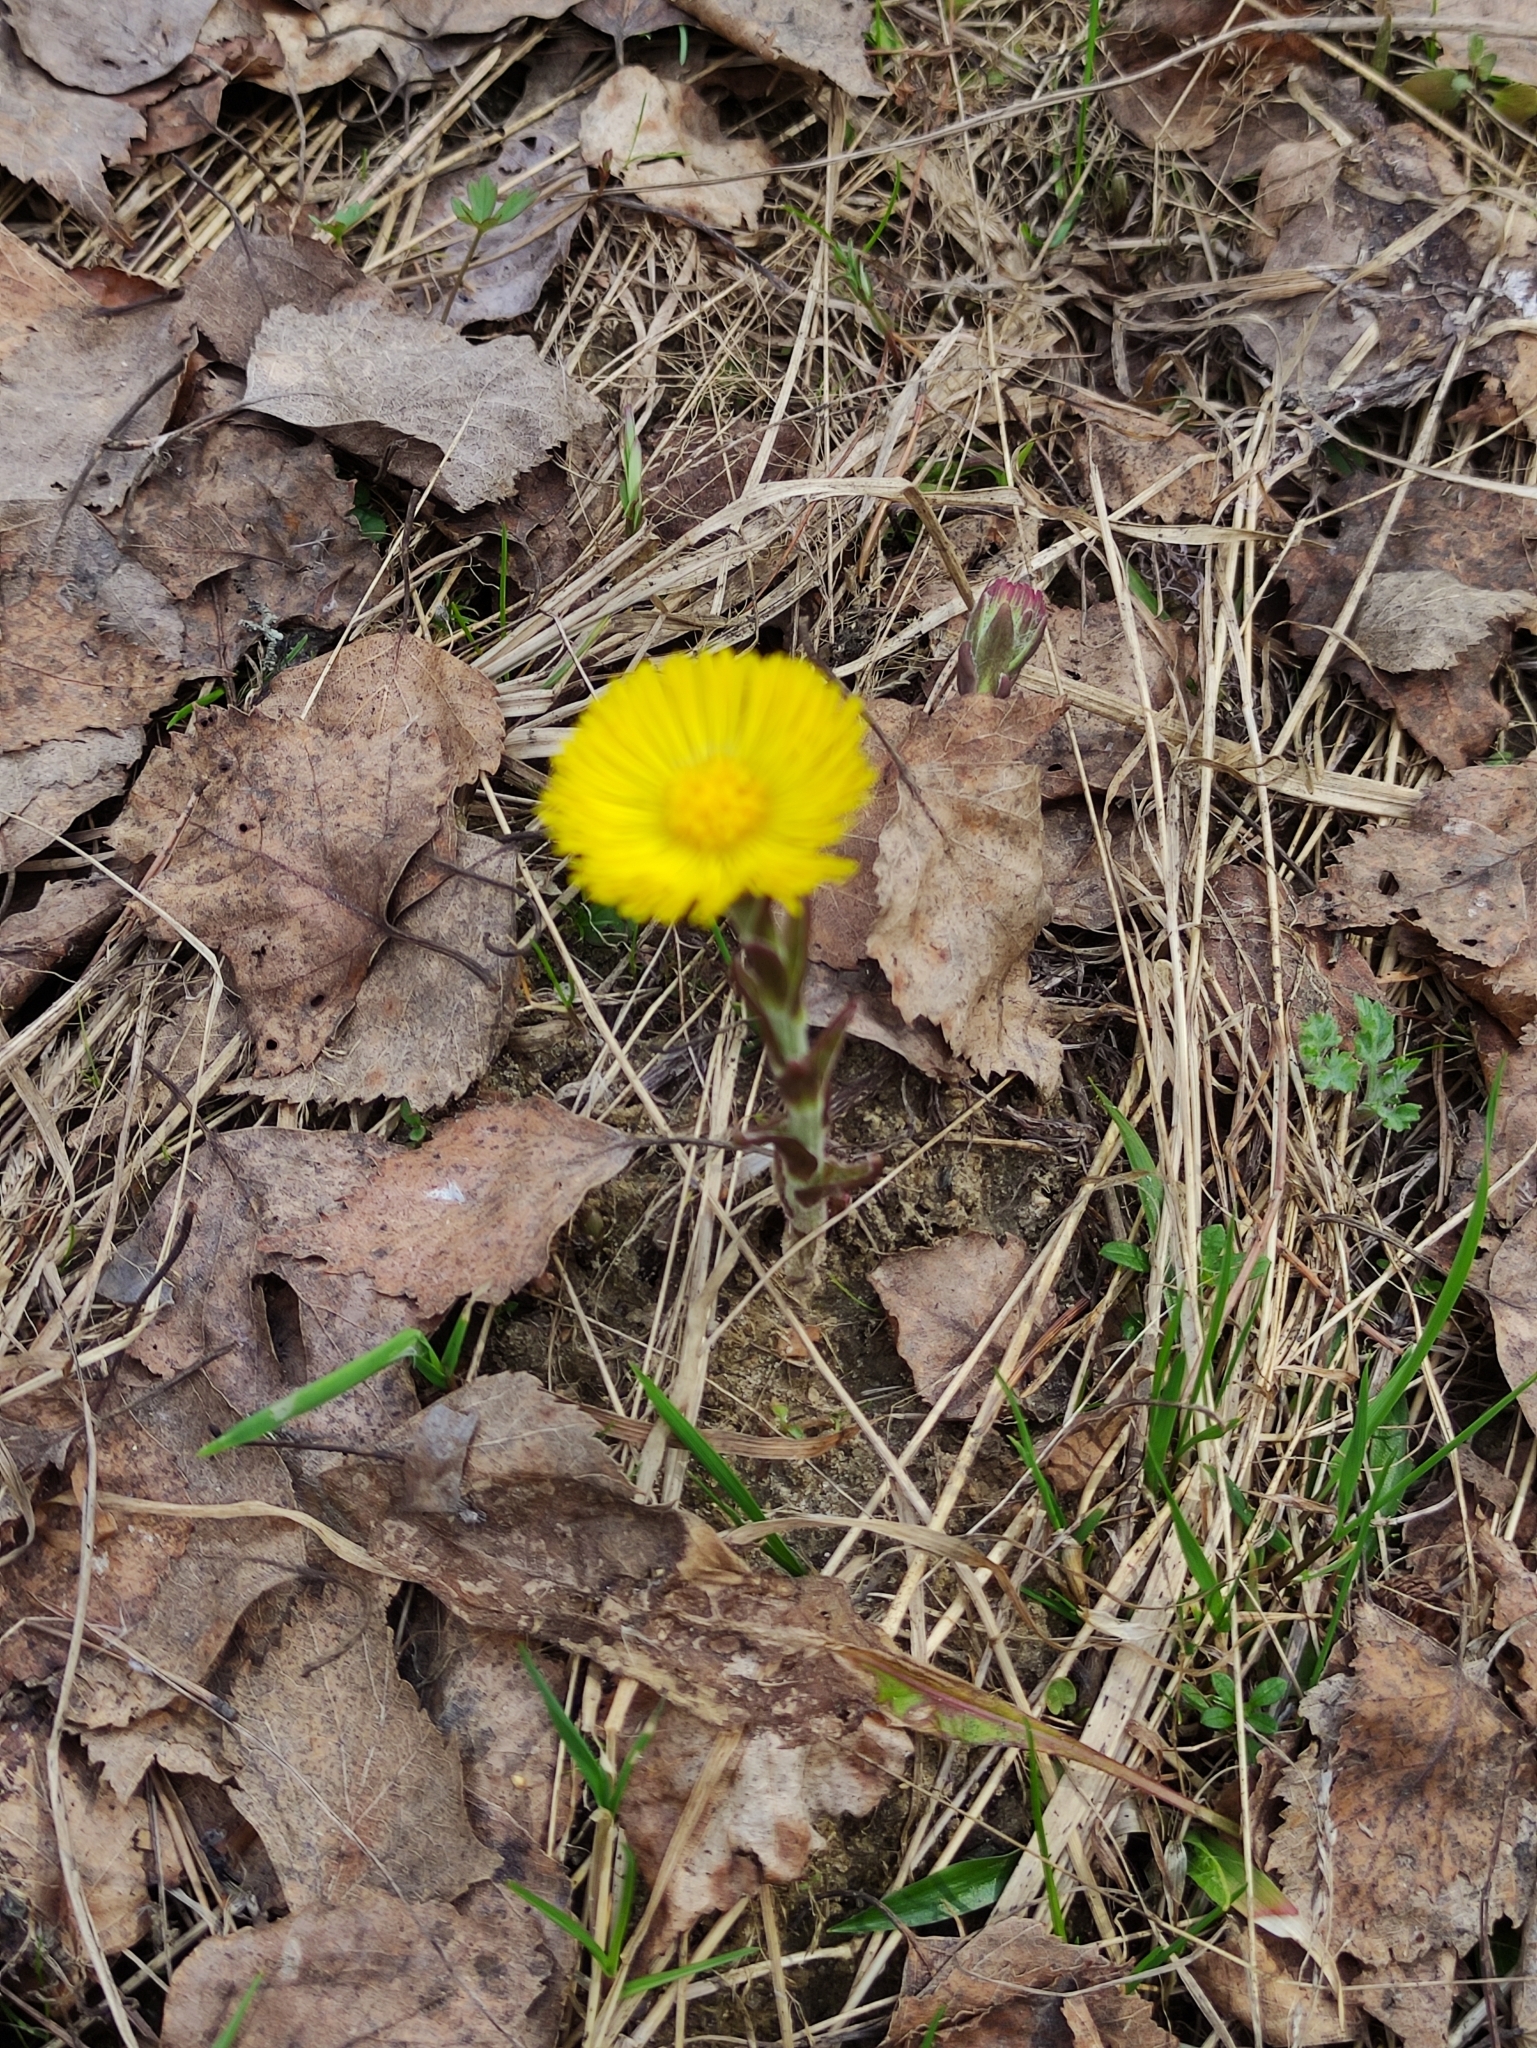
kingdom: Plantae
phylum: Tracheophyta
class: Magnoliopsida
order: Asterales
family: Asteraceae
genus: Tussilago
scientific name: Tussilago farfara
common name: Coltsfoot
